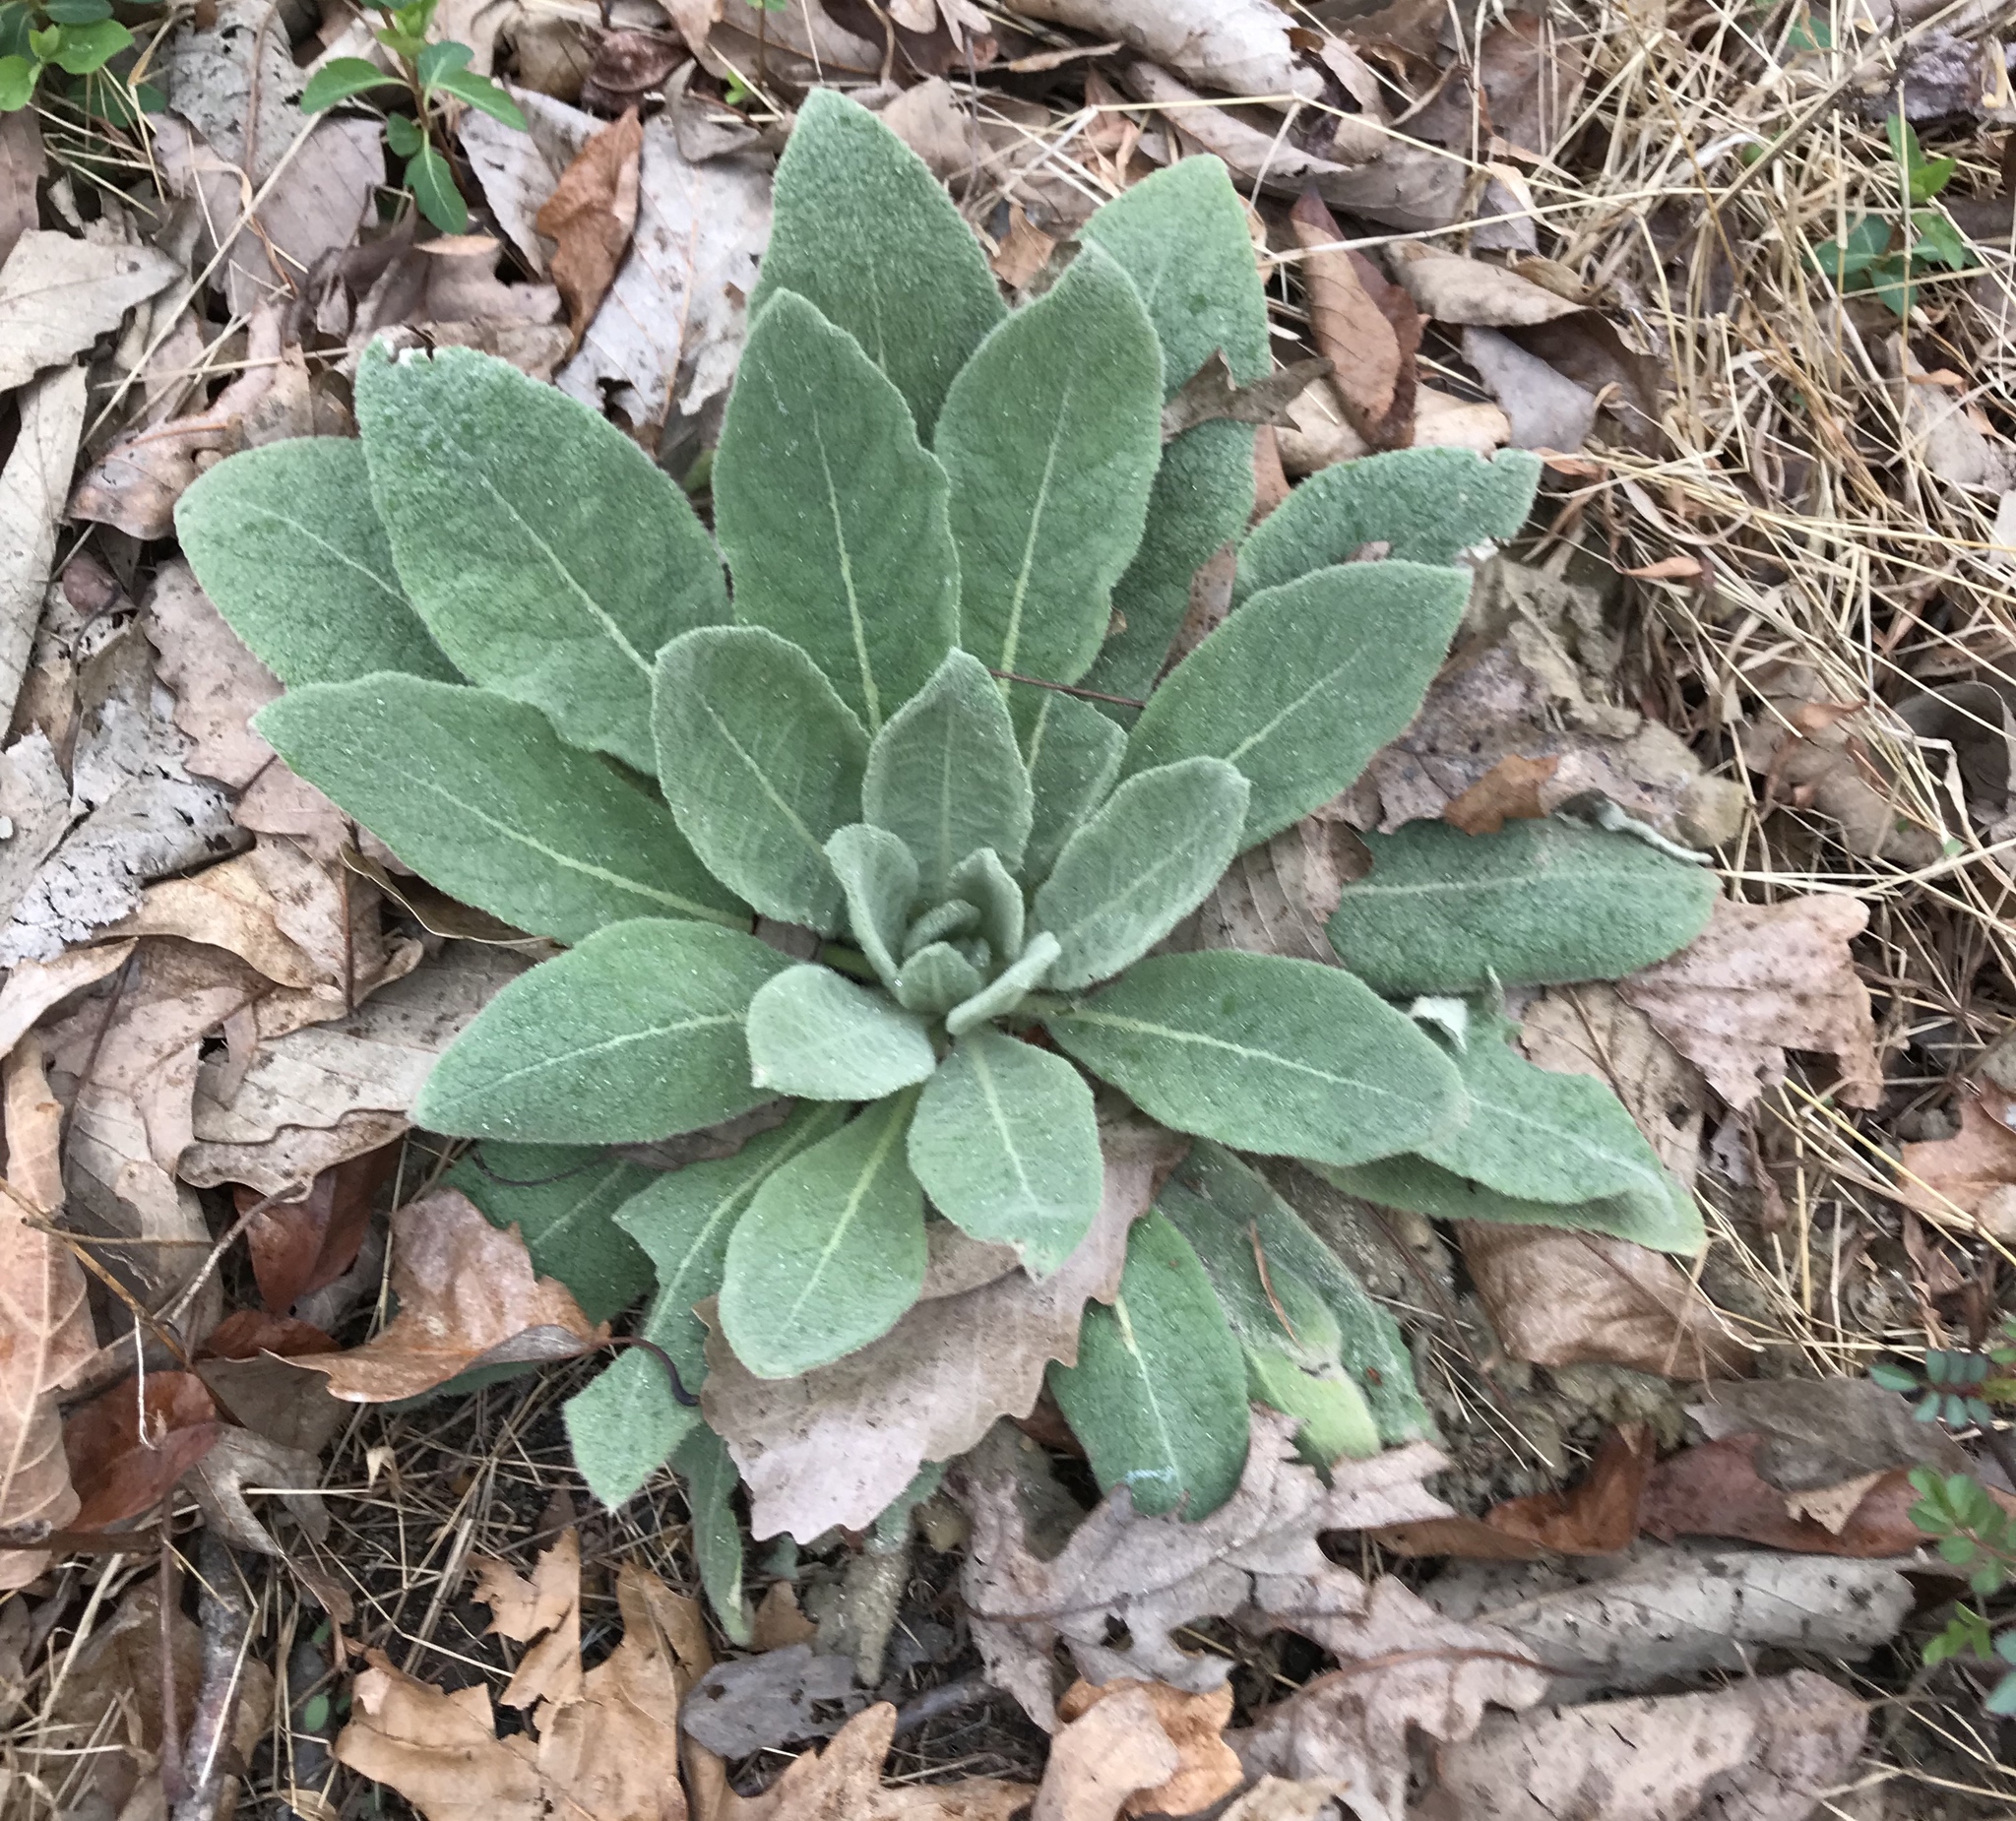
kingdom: Plantae
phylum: Tracheophyta
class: Magnoliopsida
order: Lamiales
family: Scrophulariaceae
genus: Verbascum
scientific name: Verbascum thapsus
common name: Common mullein
